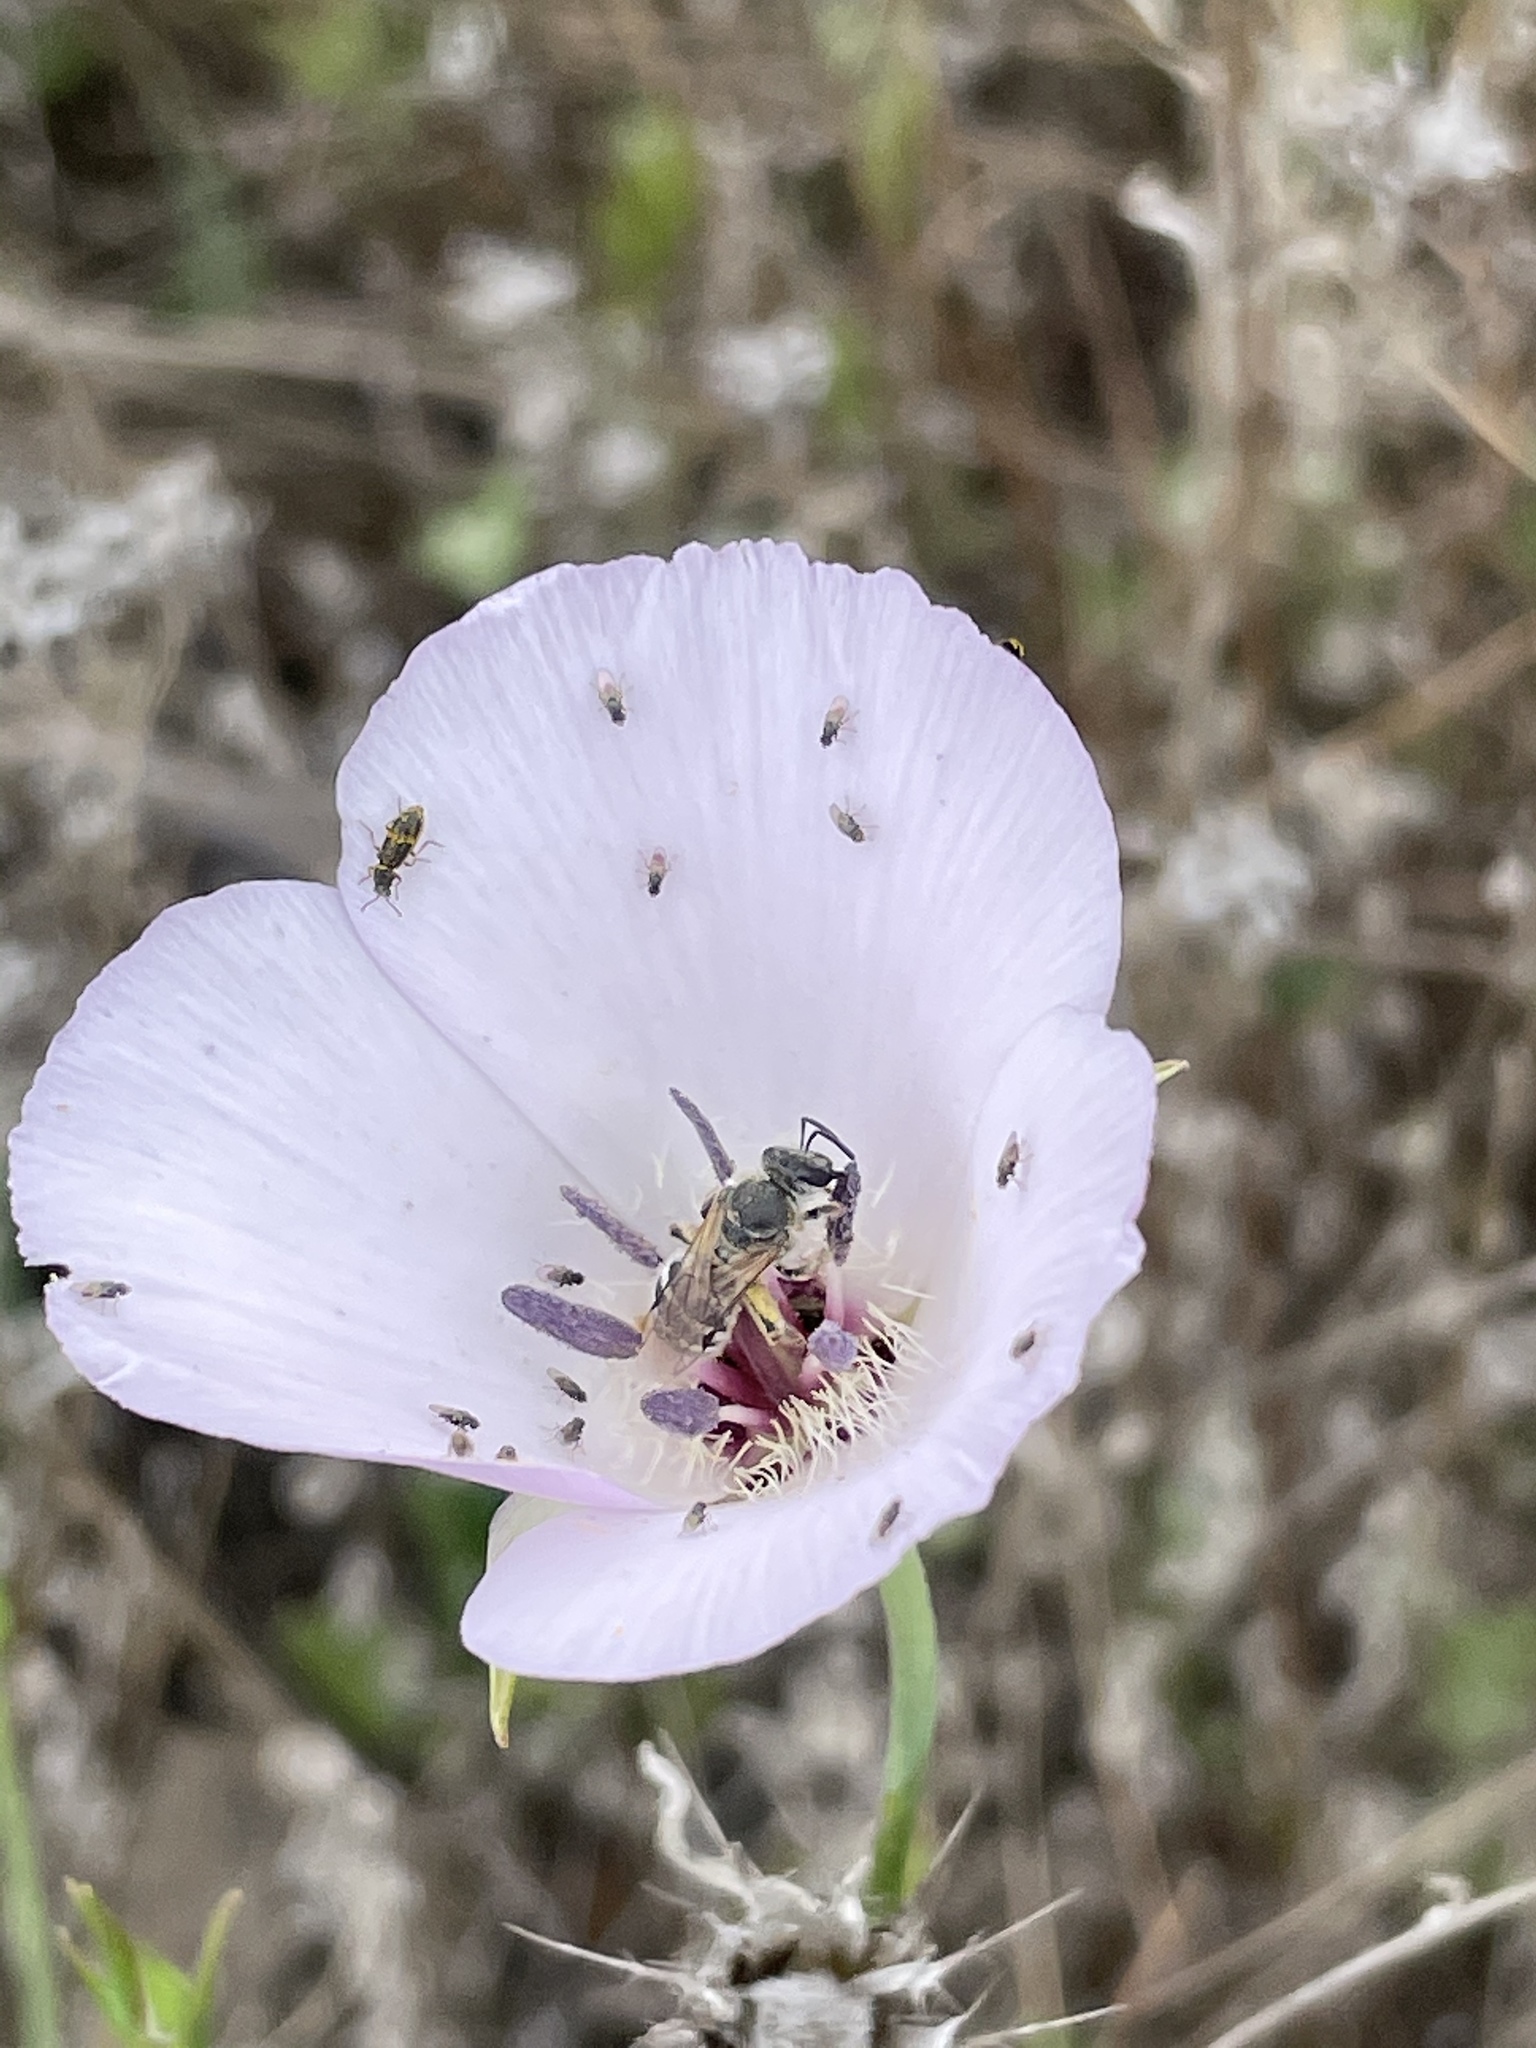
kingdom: Plantae
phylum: Tracheophyta
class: Liliopsida
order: Liliales
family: Liliaceae
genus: Calochortus
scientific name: Calochortus splendens
